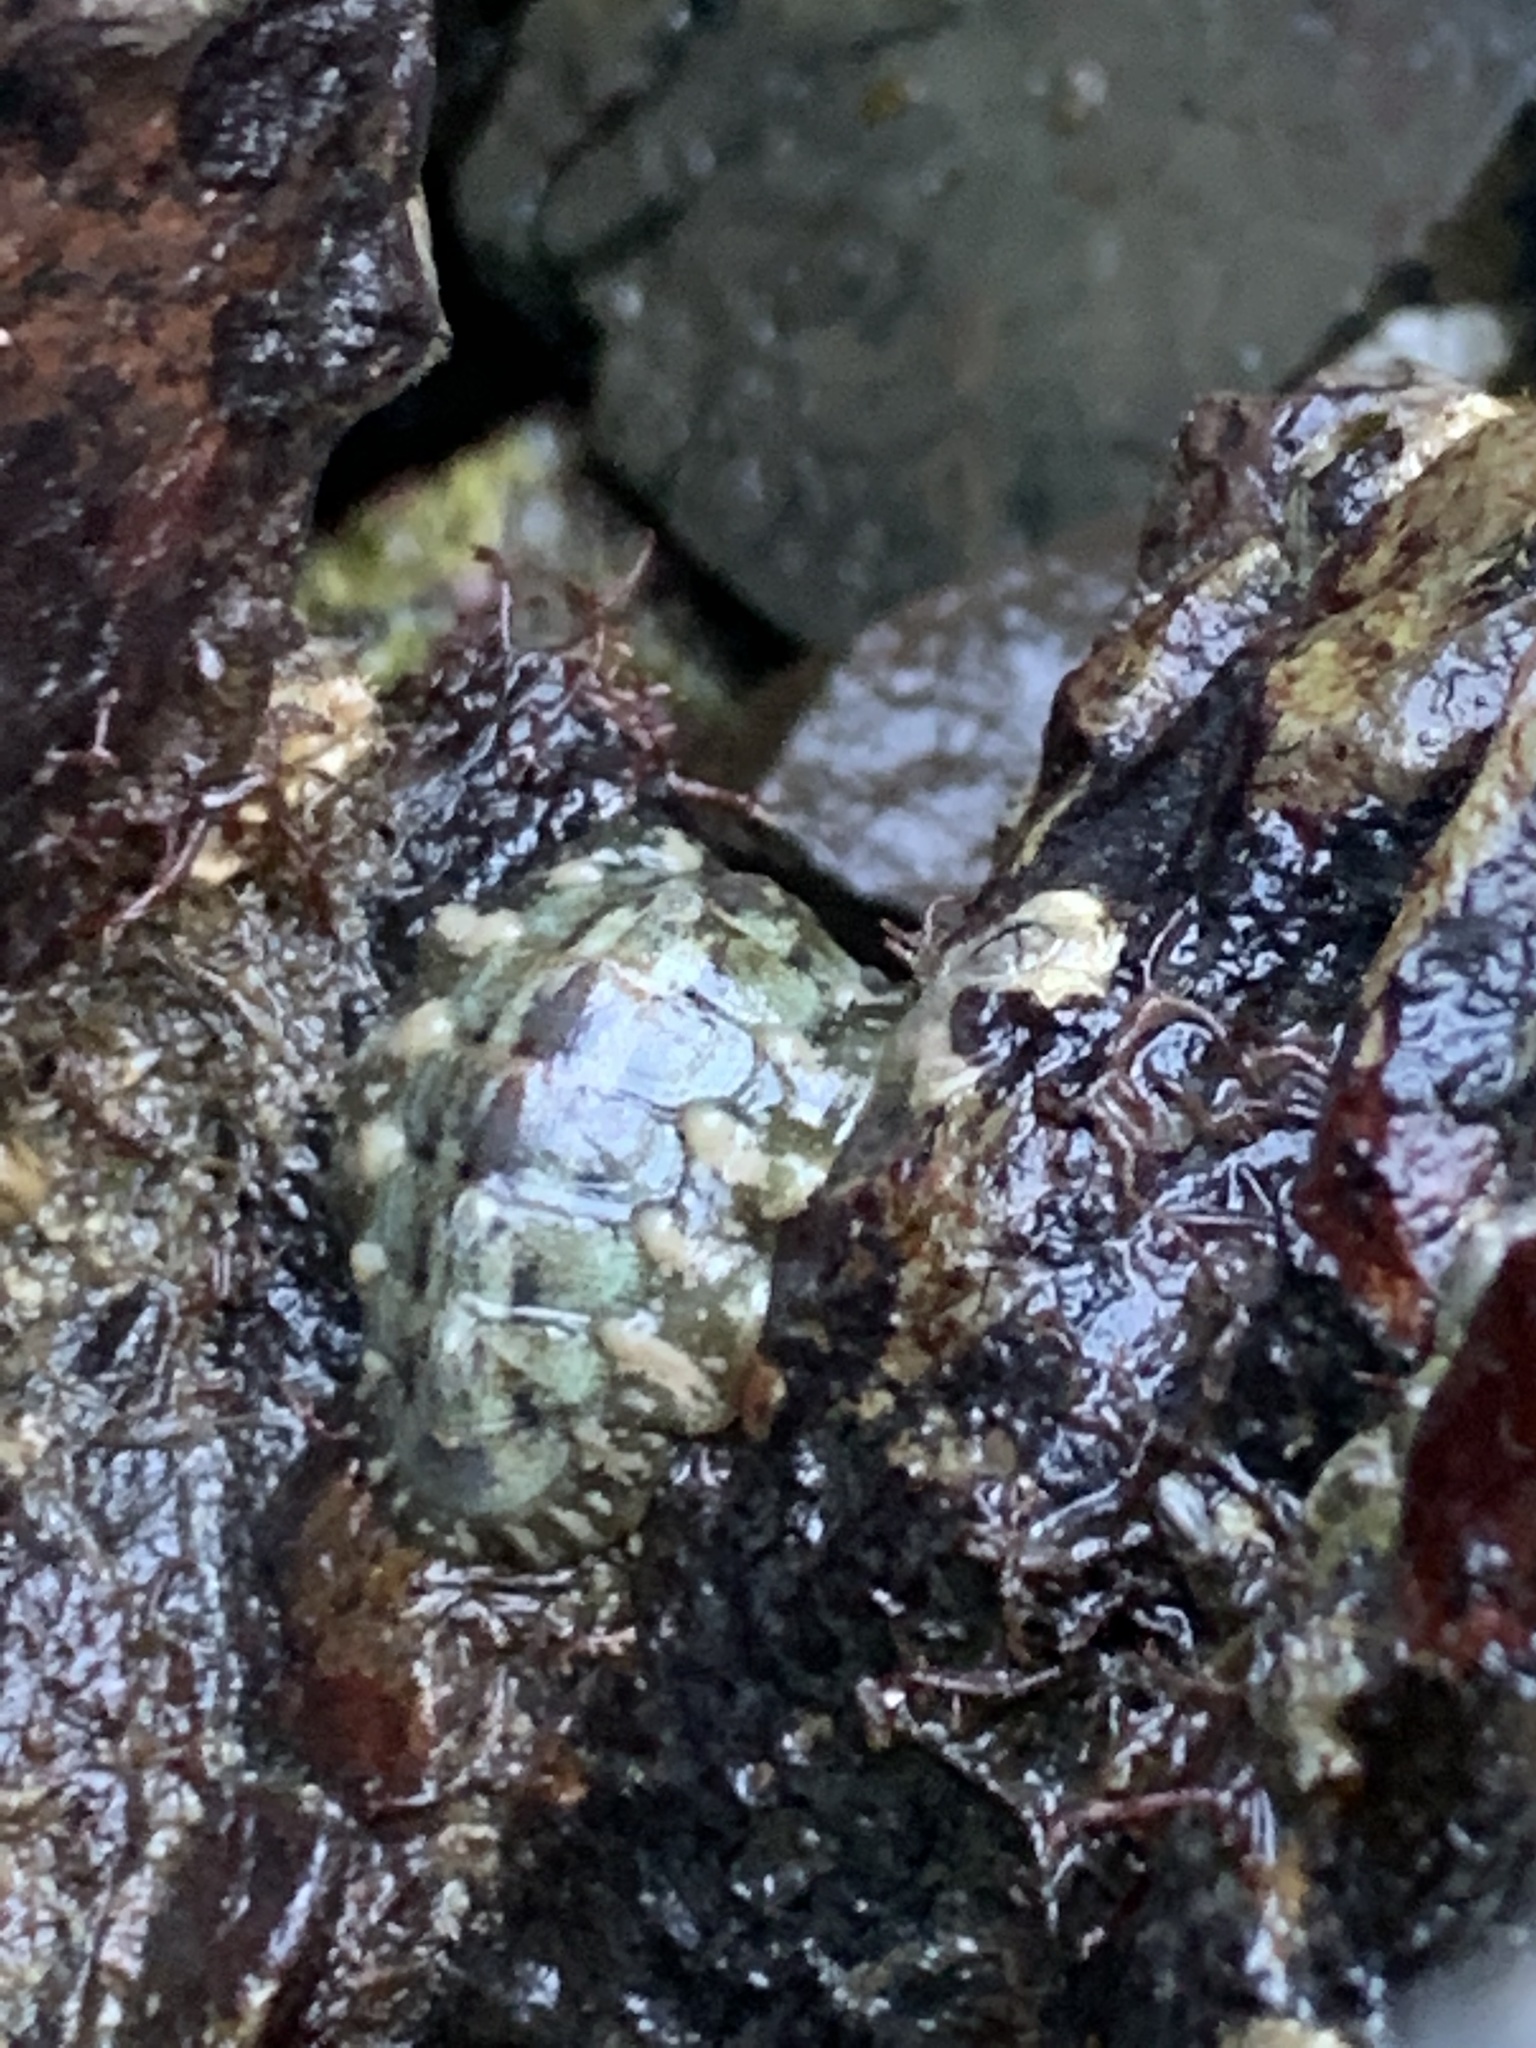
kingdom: Animalia
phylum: Mollusca
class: Polyplacophora
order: Chitonida
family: Tonicellidae
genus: Cyanoplax
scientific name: Cyanoplax dentiens
